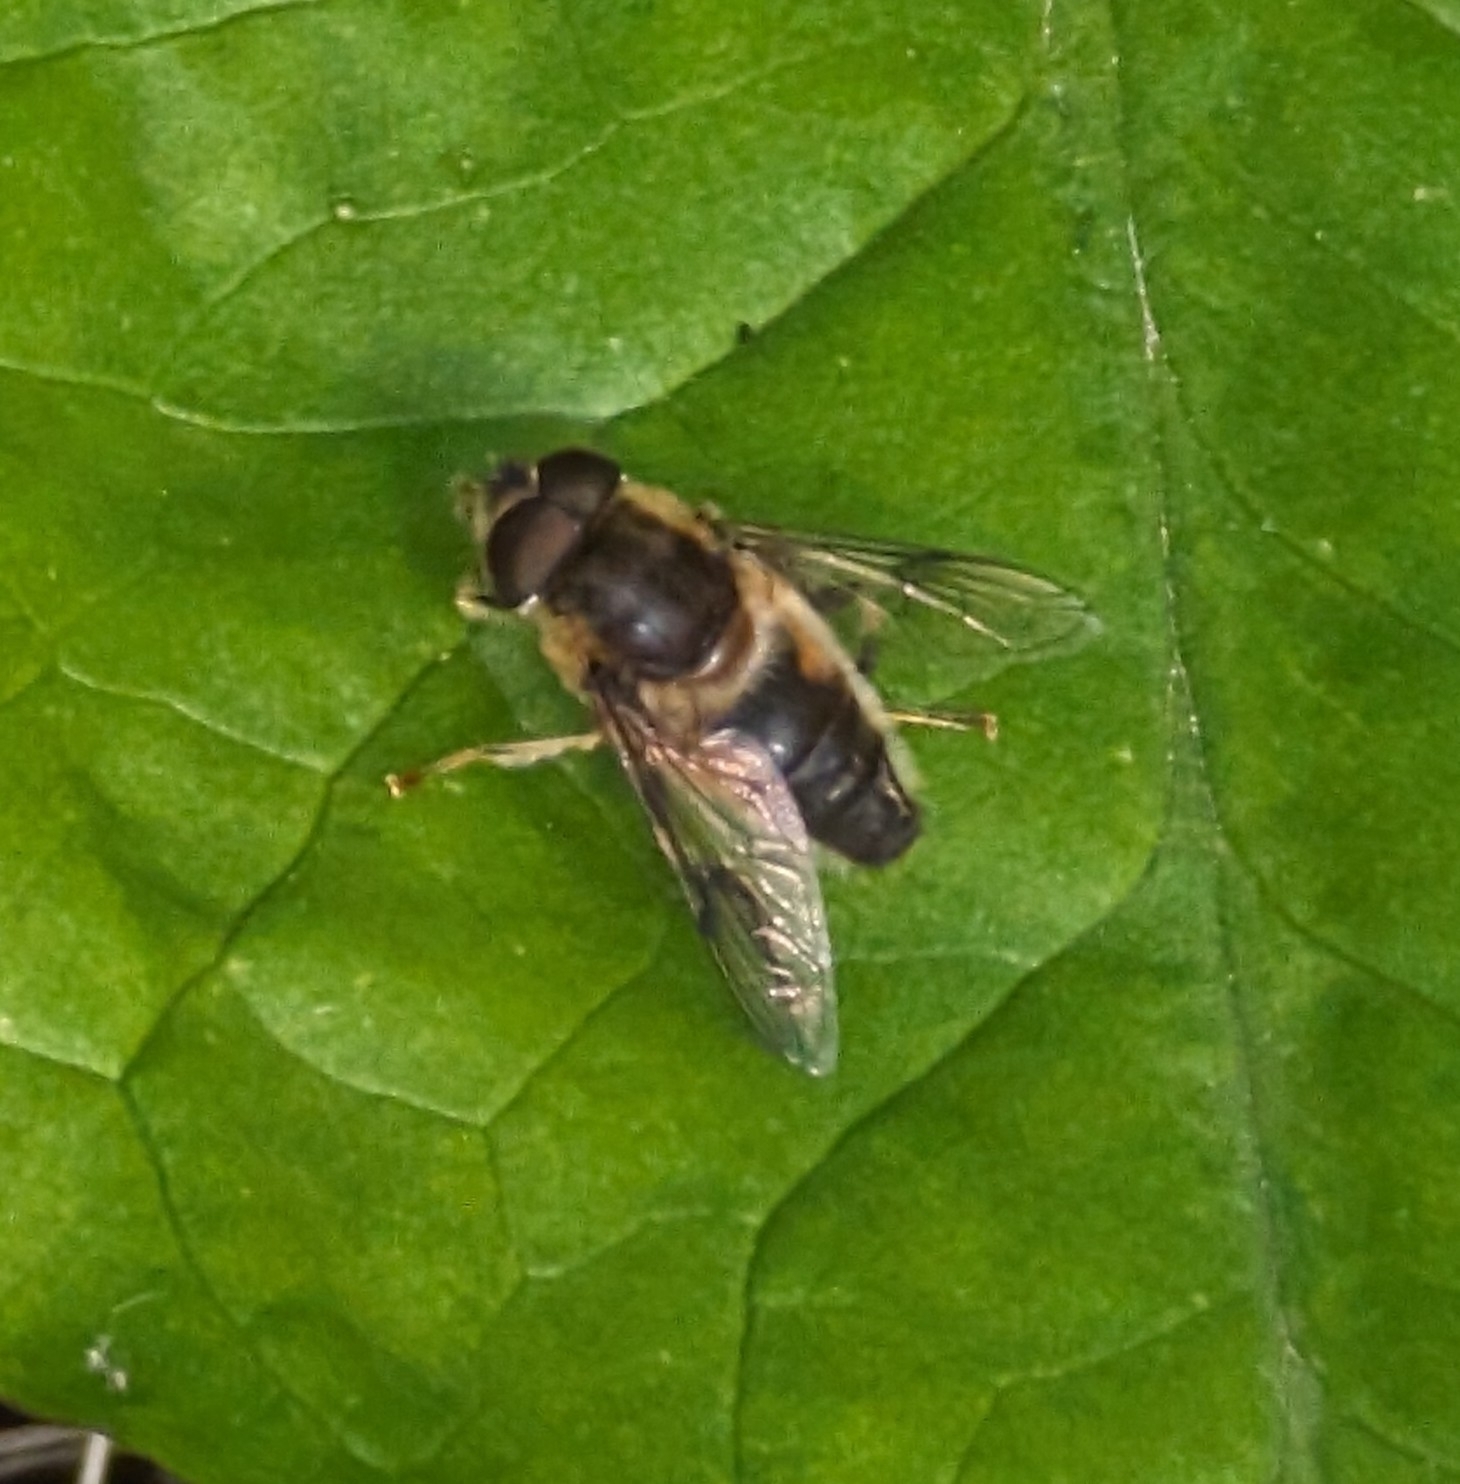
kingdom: Animalia
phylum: Arthropoda
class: Insecta
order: Diptera
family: Syrphidae
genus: Eristalis
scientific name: Eristalis pertinax
